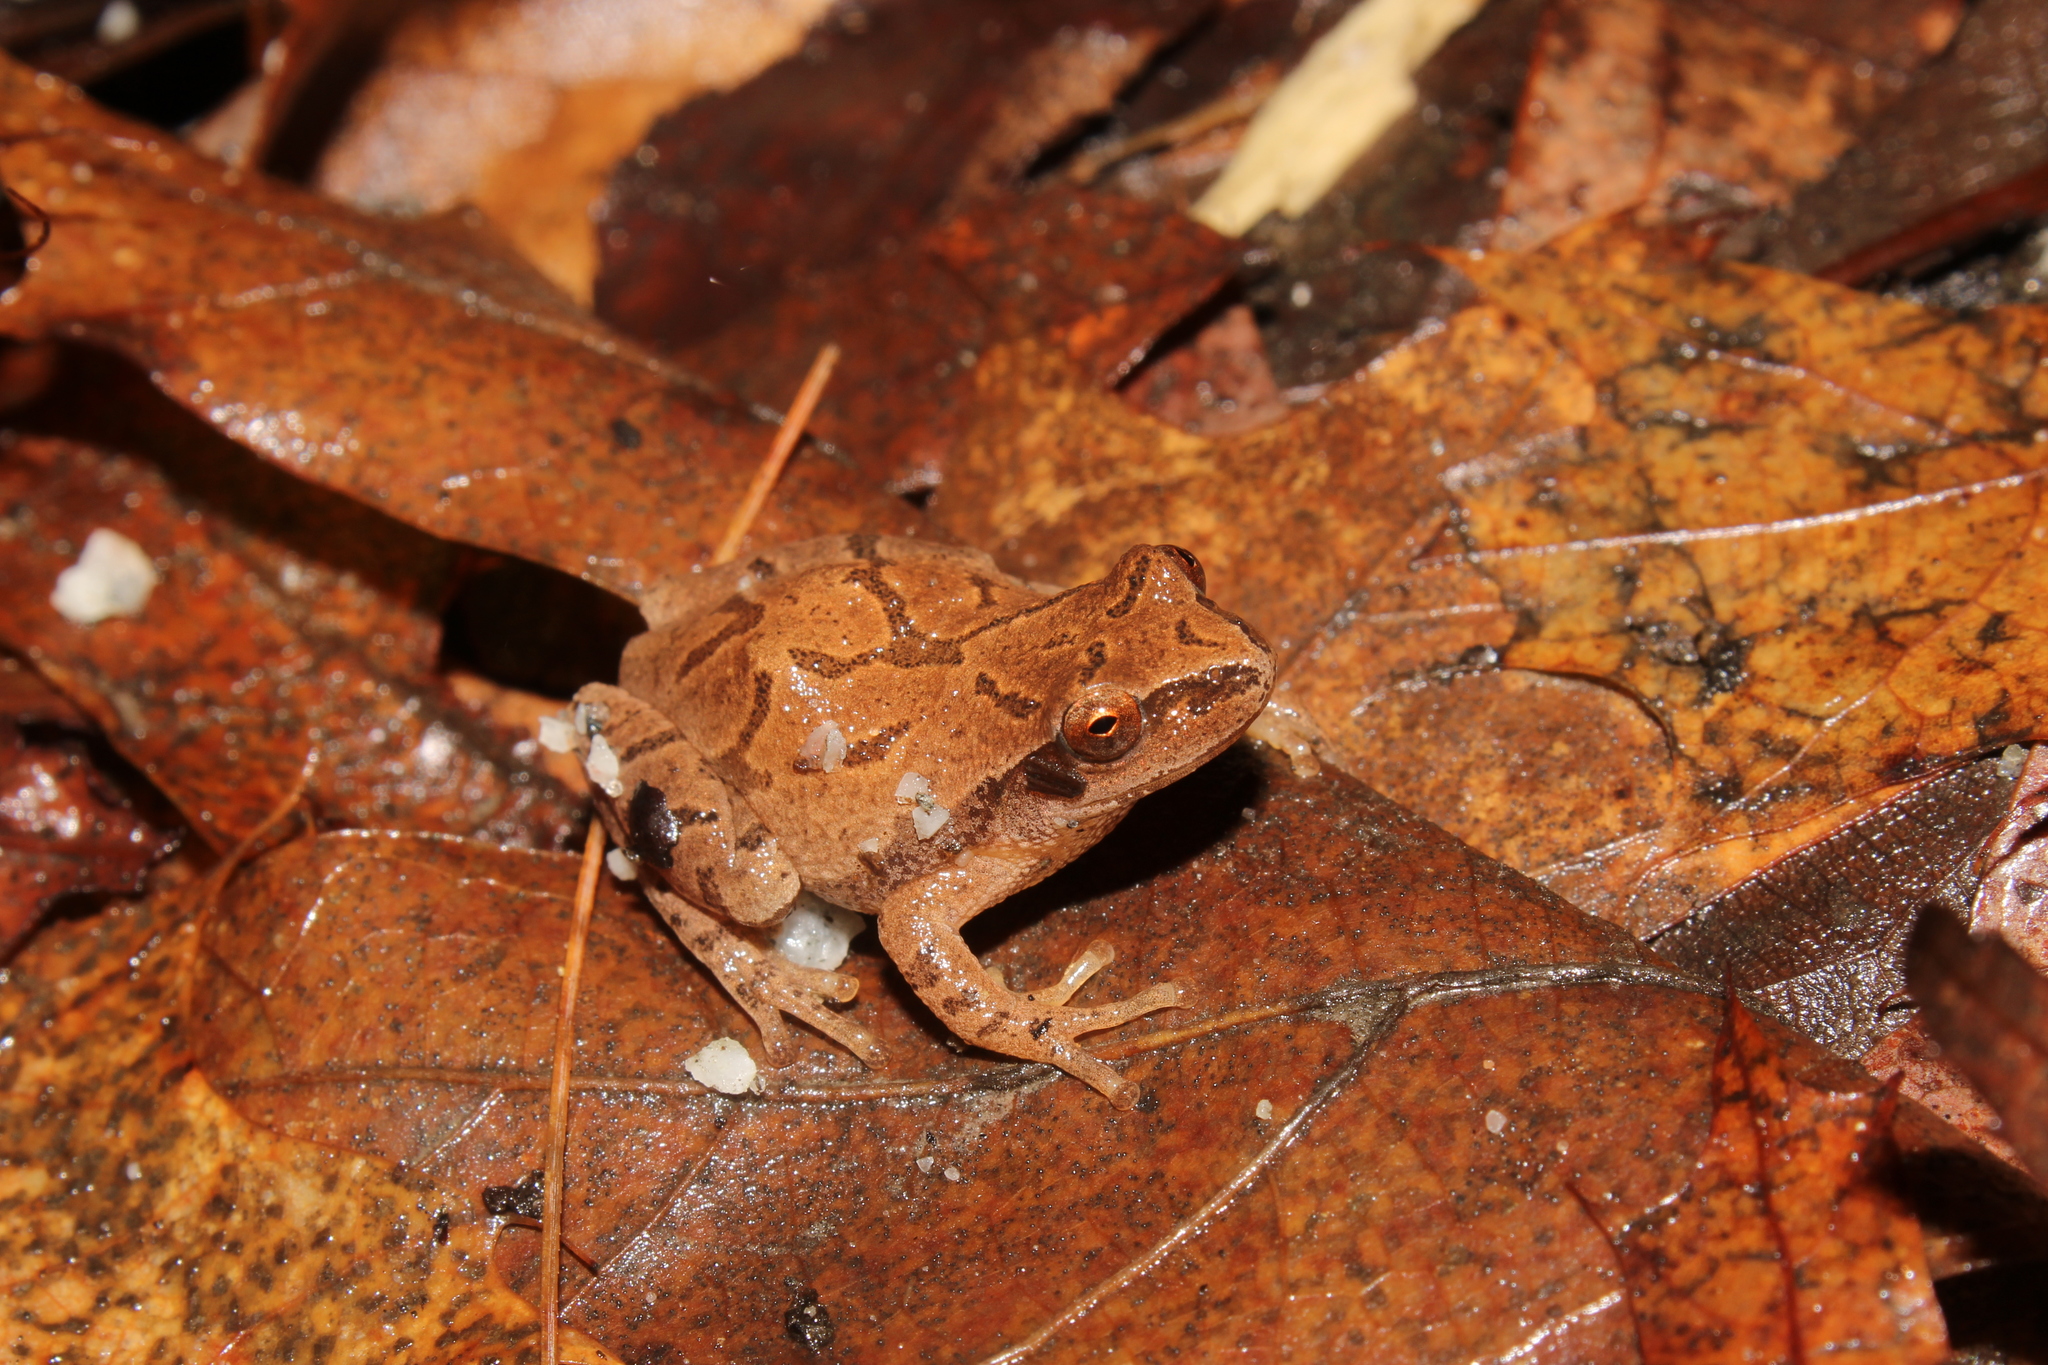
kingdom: Animalia
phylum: Chordata
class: Amphibia
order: Anura
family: Hylidae
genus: Pseudacris
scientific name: Pseudacris crucifer
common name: Spring peeper
